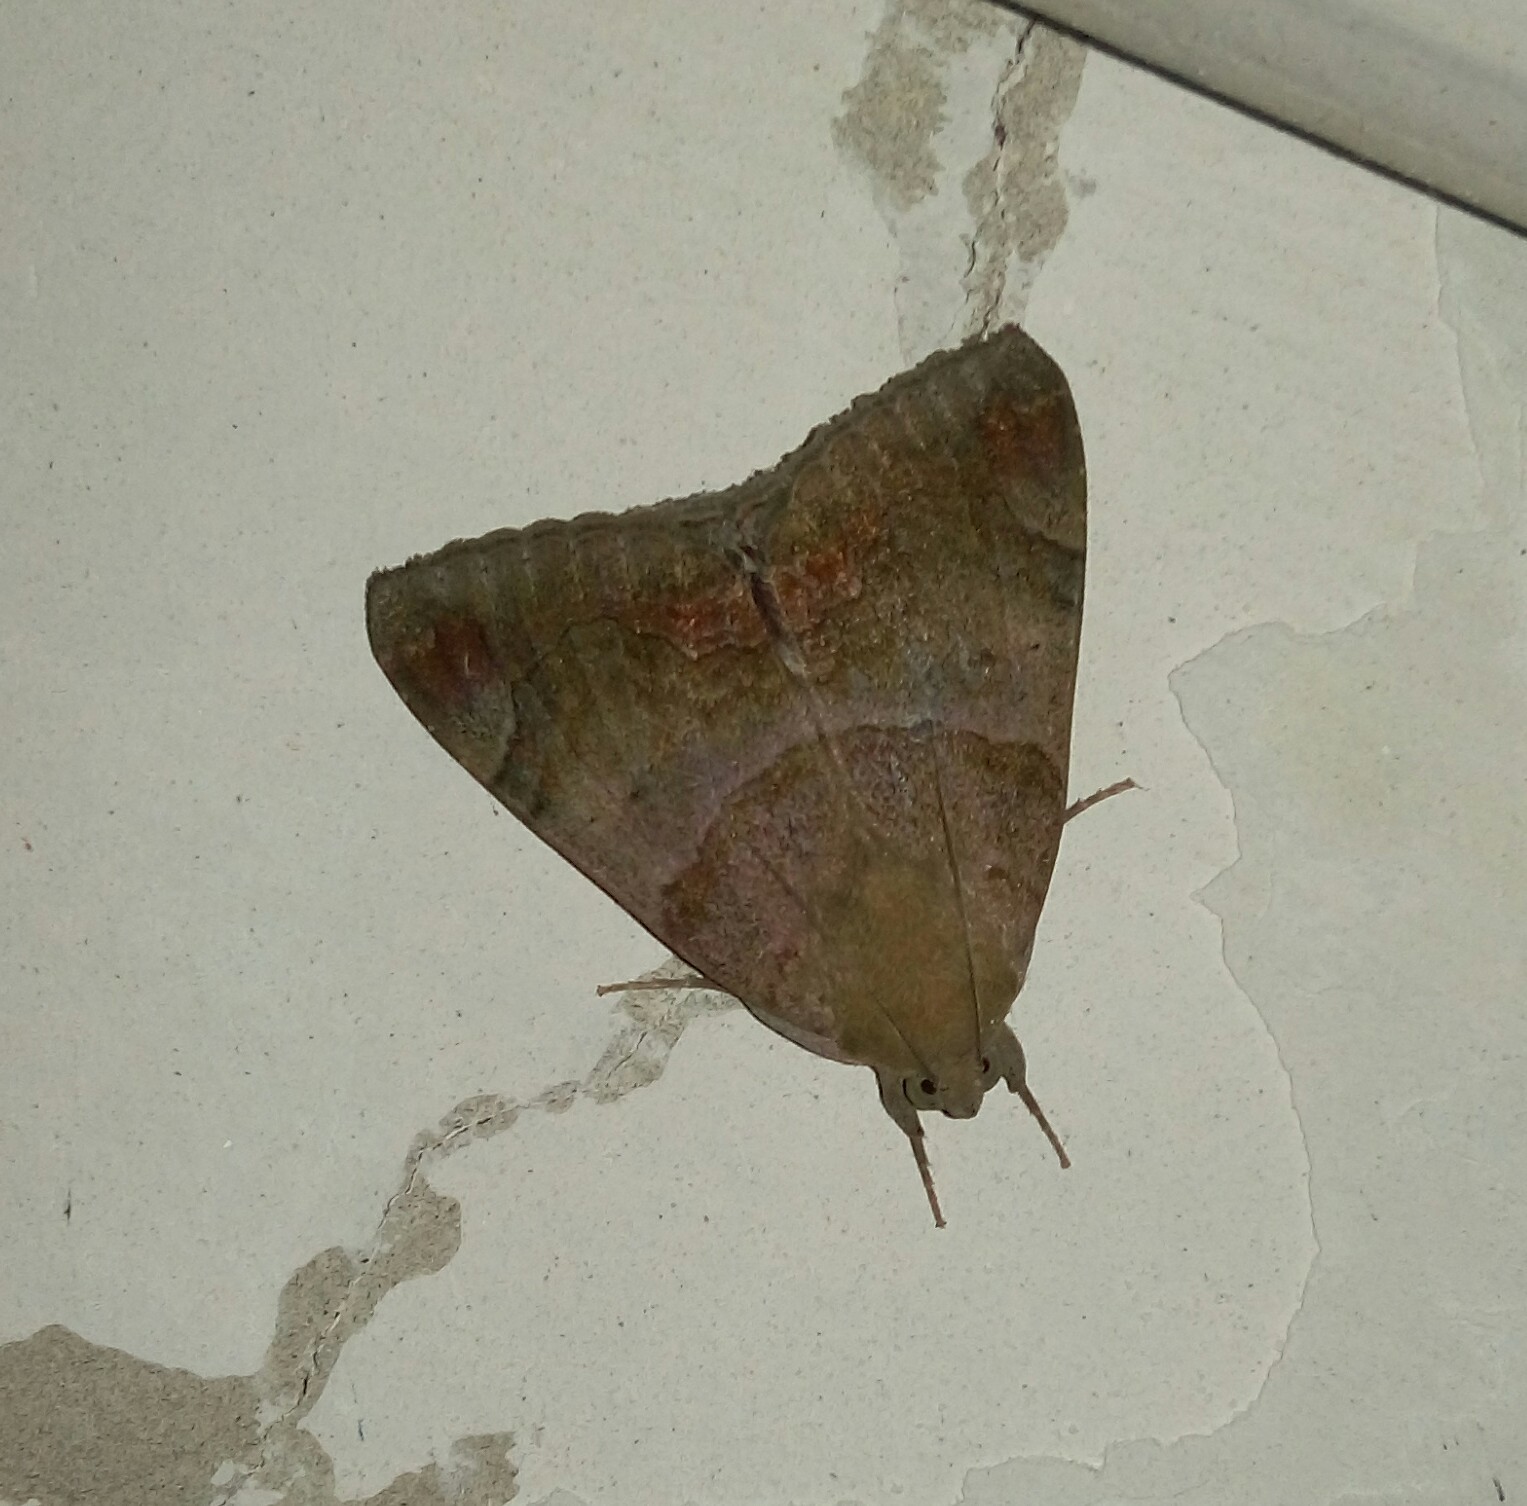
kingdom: Animalia
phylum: Arthropoda
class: Insecta
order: Lepidoptera
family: Erebidae
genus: Achaea
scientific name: Achaea janata
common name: Croton caterpillar
